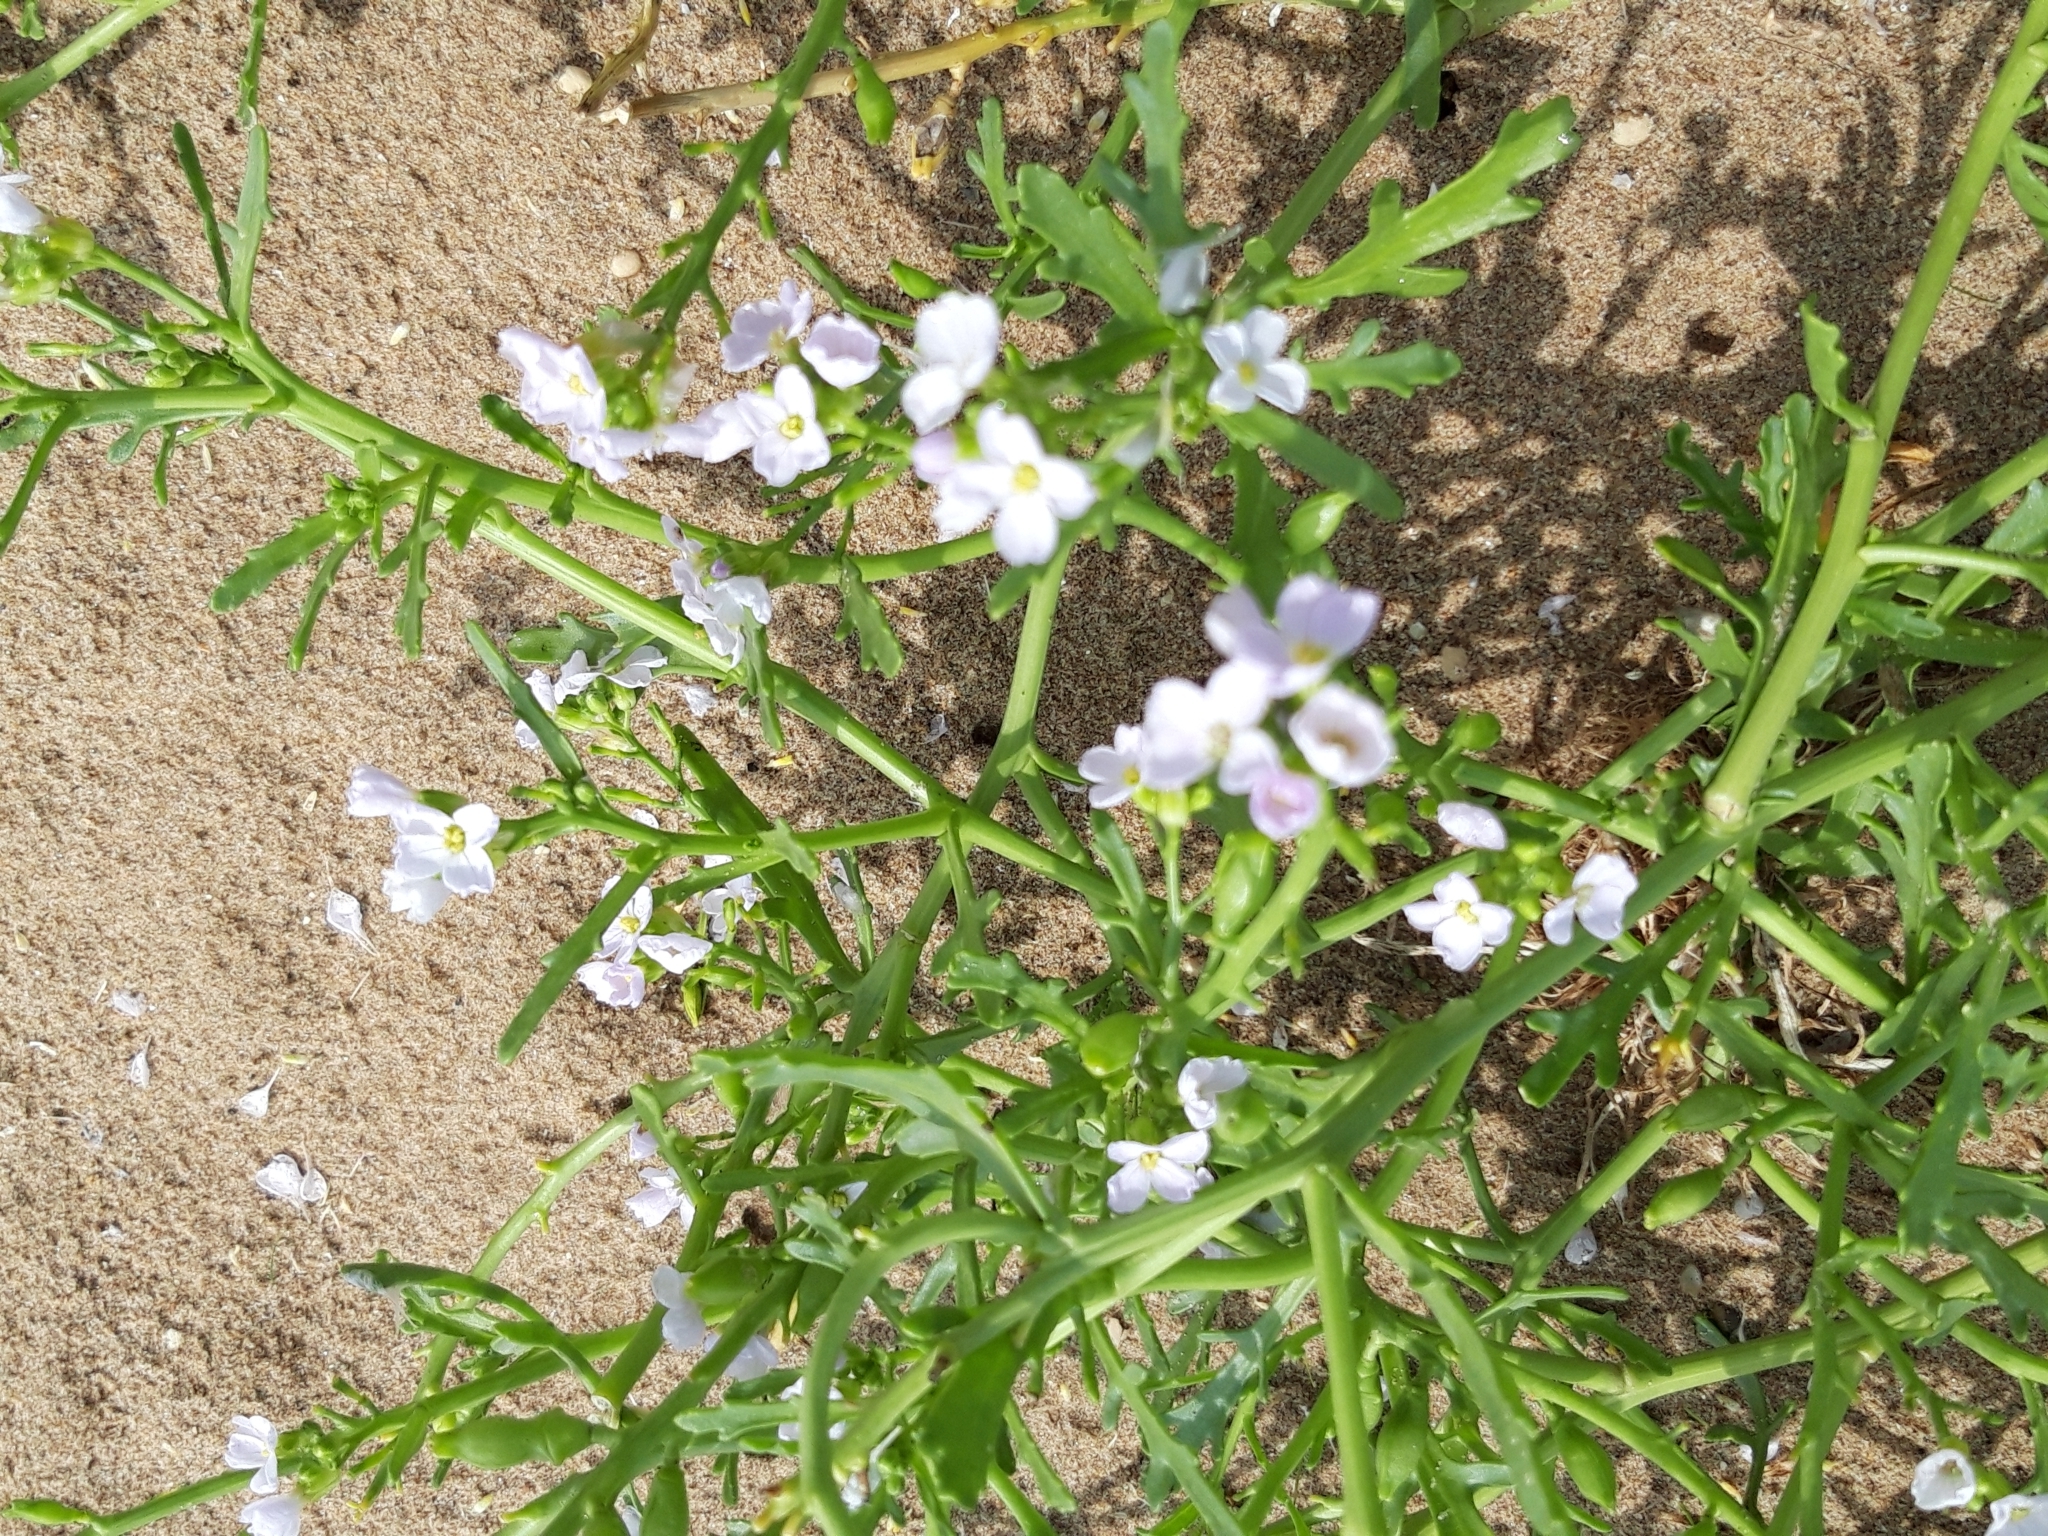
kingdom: Plantae
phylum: Tracheophyta
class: Magnoliopsida
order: Brassicales
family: Brassicaceae
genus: Cakile
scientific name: Cakile maritima
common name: Sea rocket
